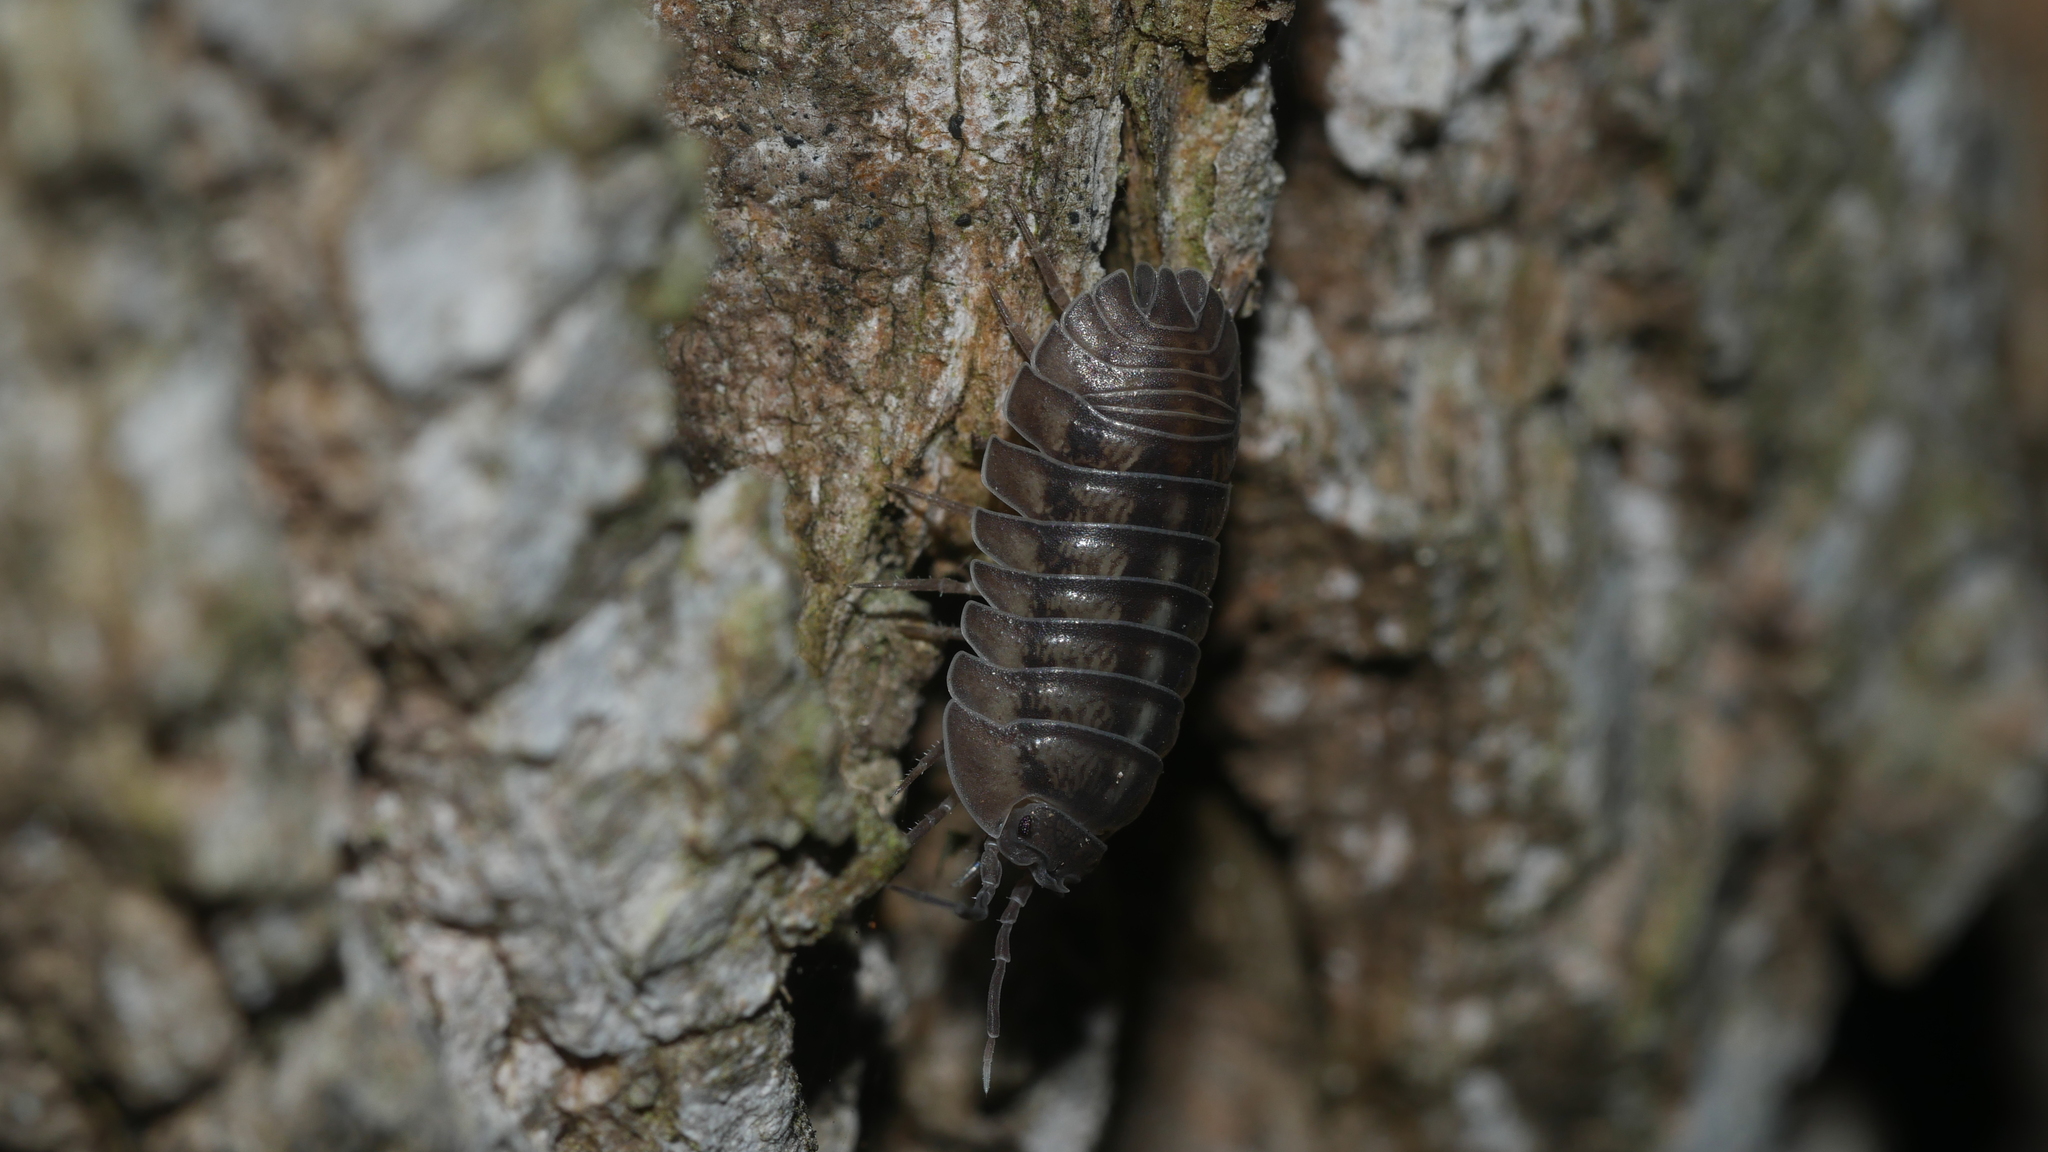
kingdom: Animalia
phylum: Arthropoda
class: Malacostraca
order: Isopoda
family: Armadillidiidae
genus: Armadillidium
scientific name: Armadillidium nasatum
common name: Isopod
